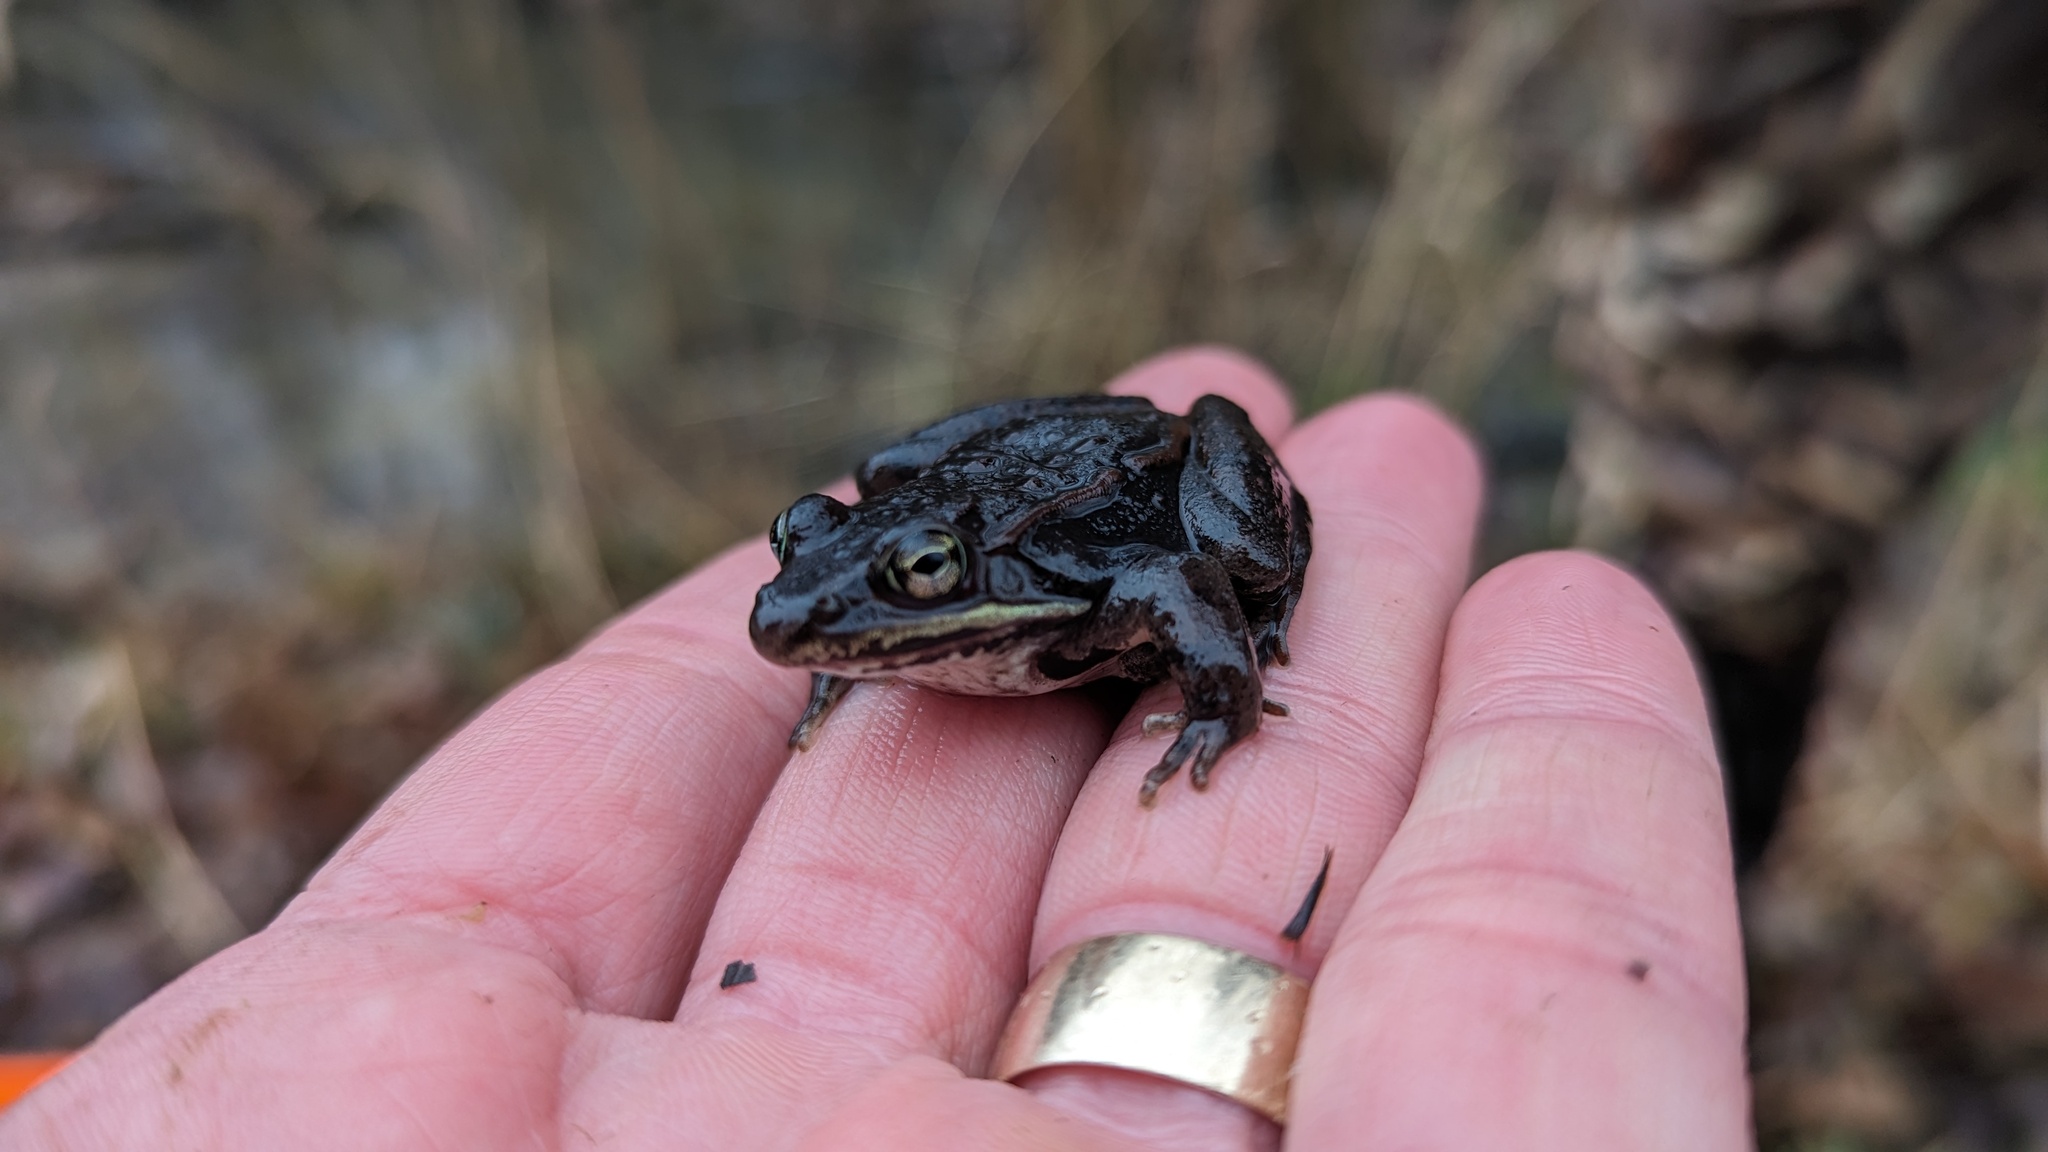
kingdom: Animalia
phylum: Chordata
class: Amphibia
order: Anura
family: Ranidae
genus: Lithobates
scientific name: Lithobates sylvaticus
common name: Wood frog
